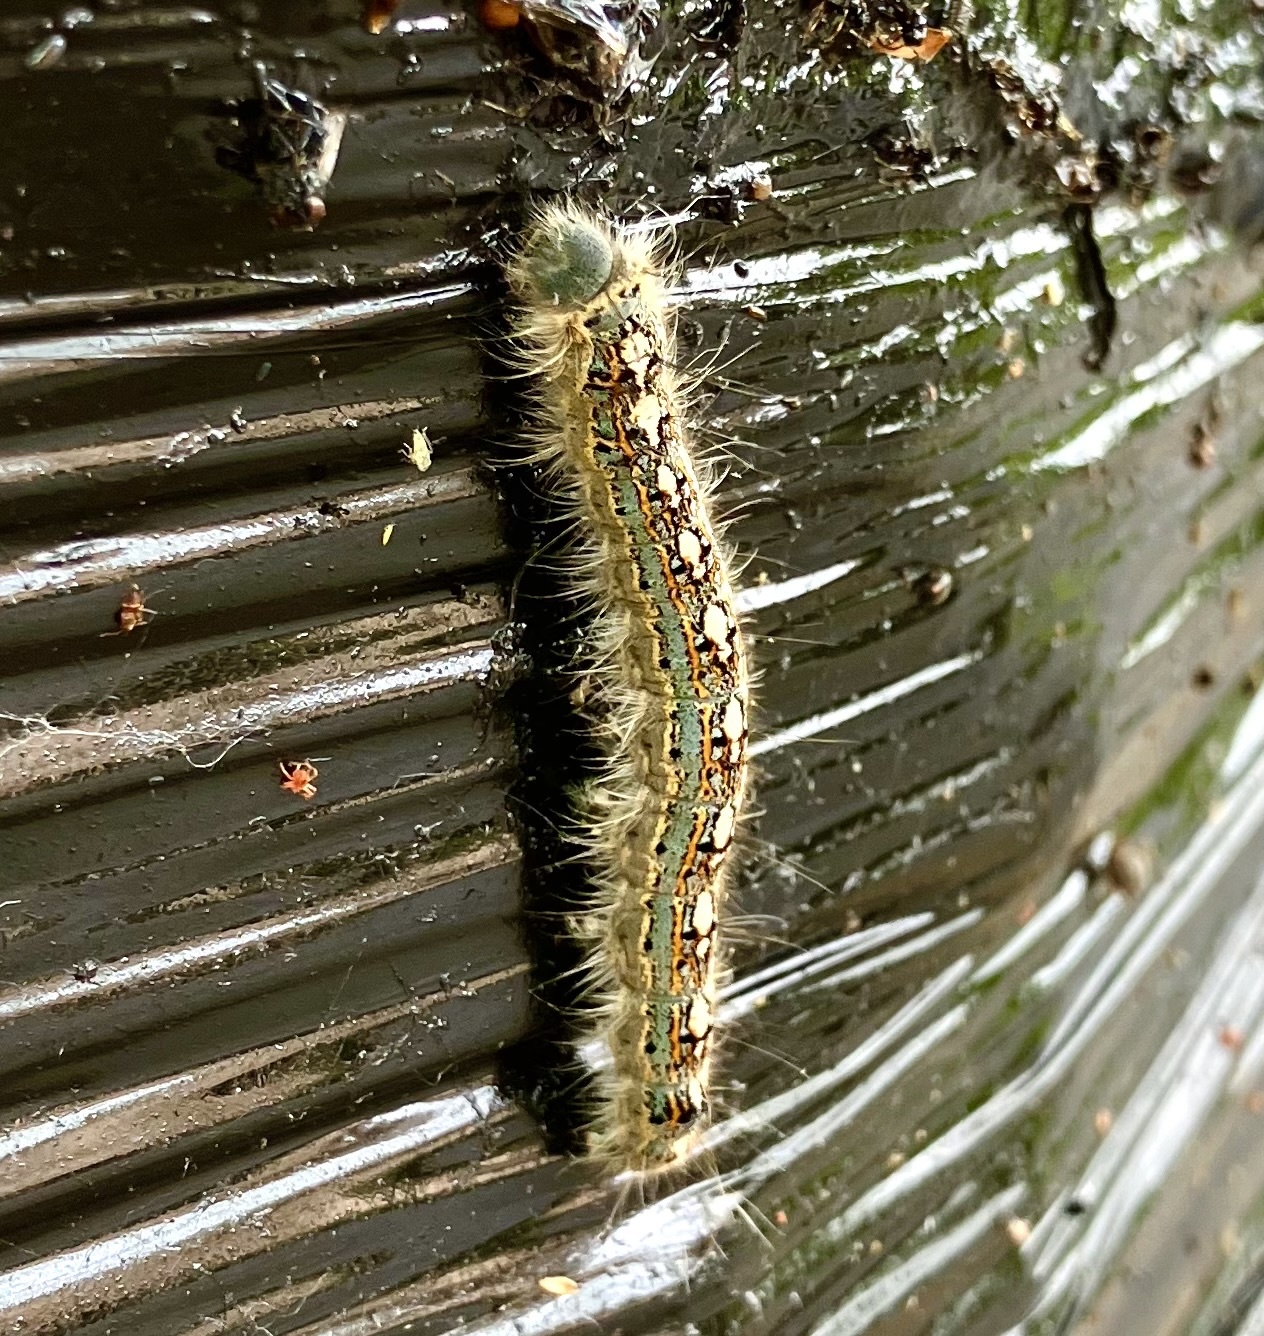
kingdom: Animalia
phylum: Arthropoda
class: Insecta
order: Lepidoptera
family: Lasiocampidae
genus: Malacosoma
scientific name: Malacosoma disstria
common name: Forest tent caterpillar
